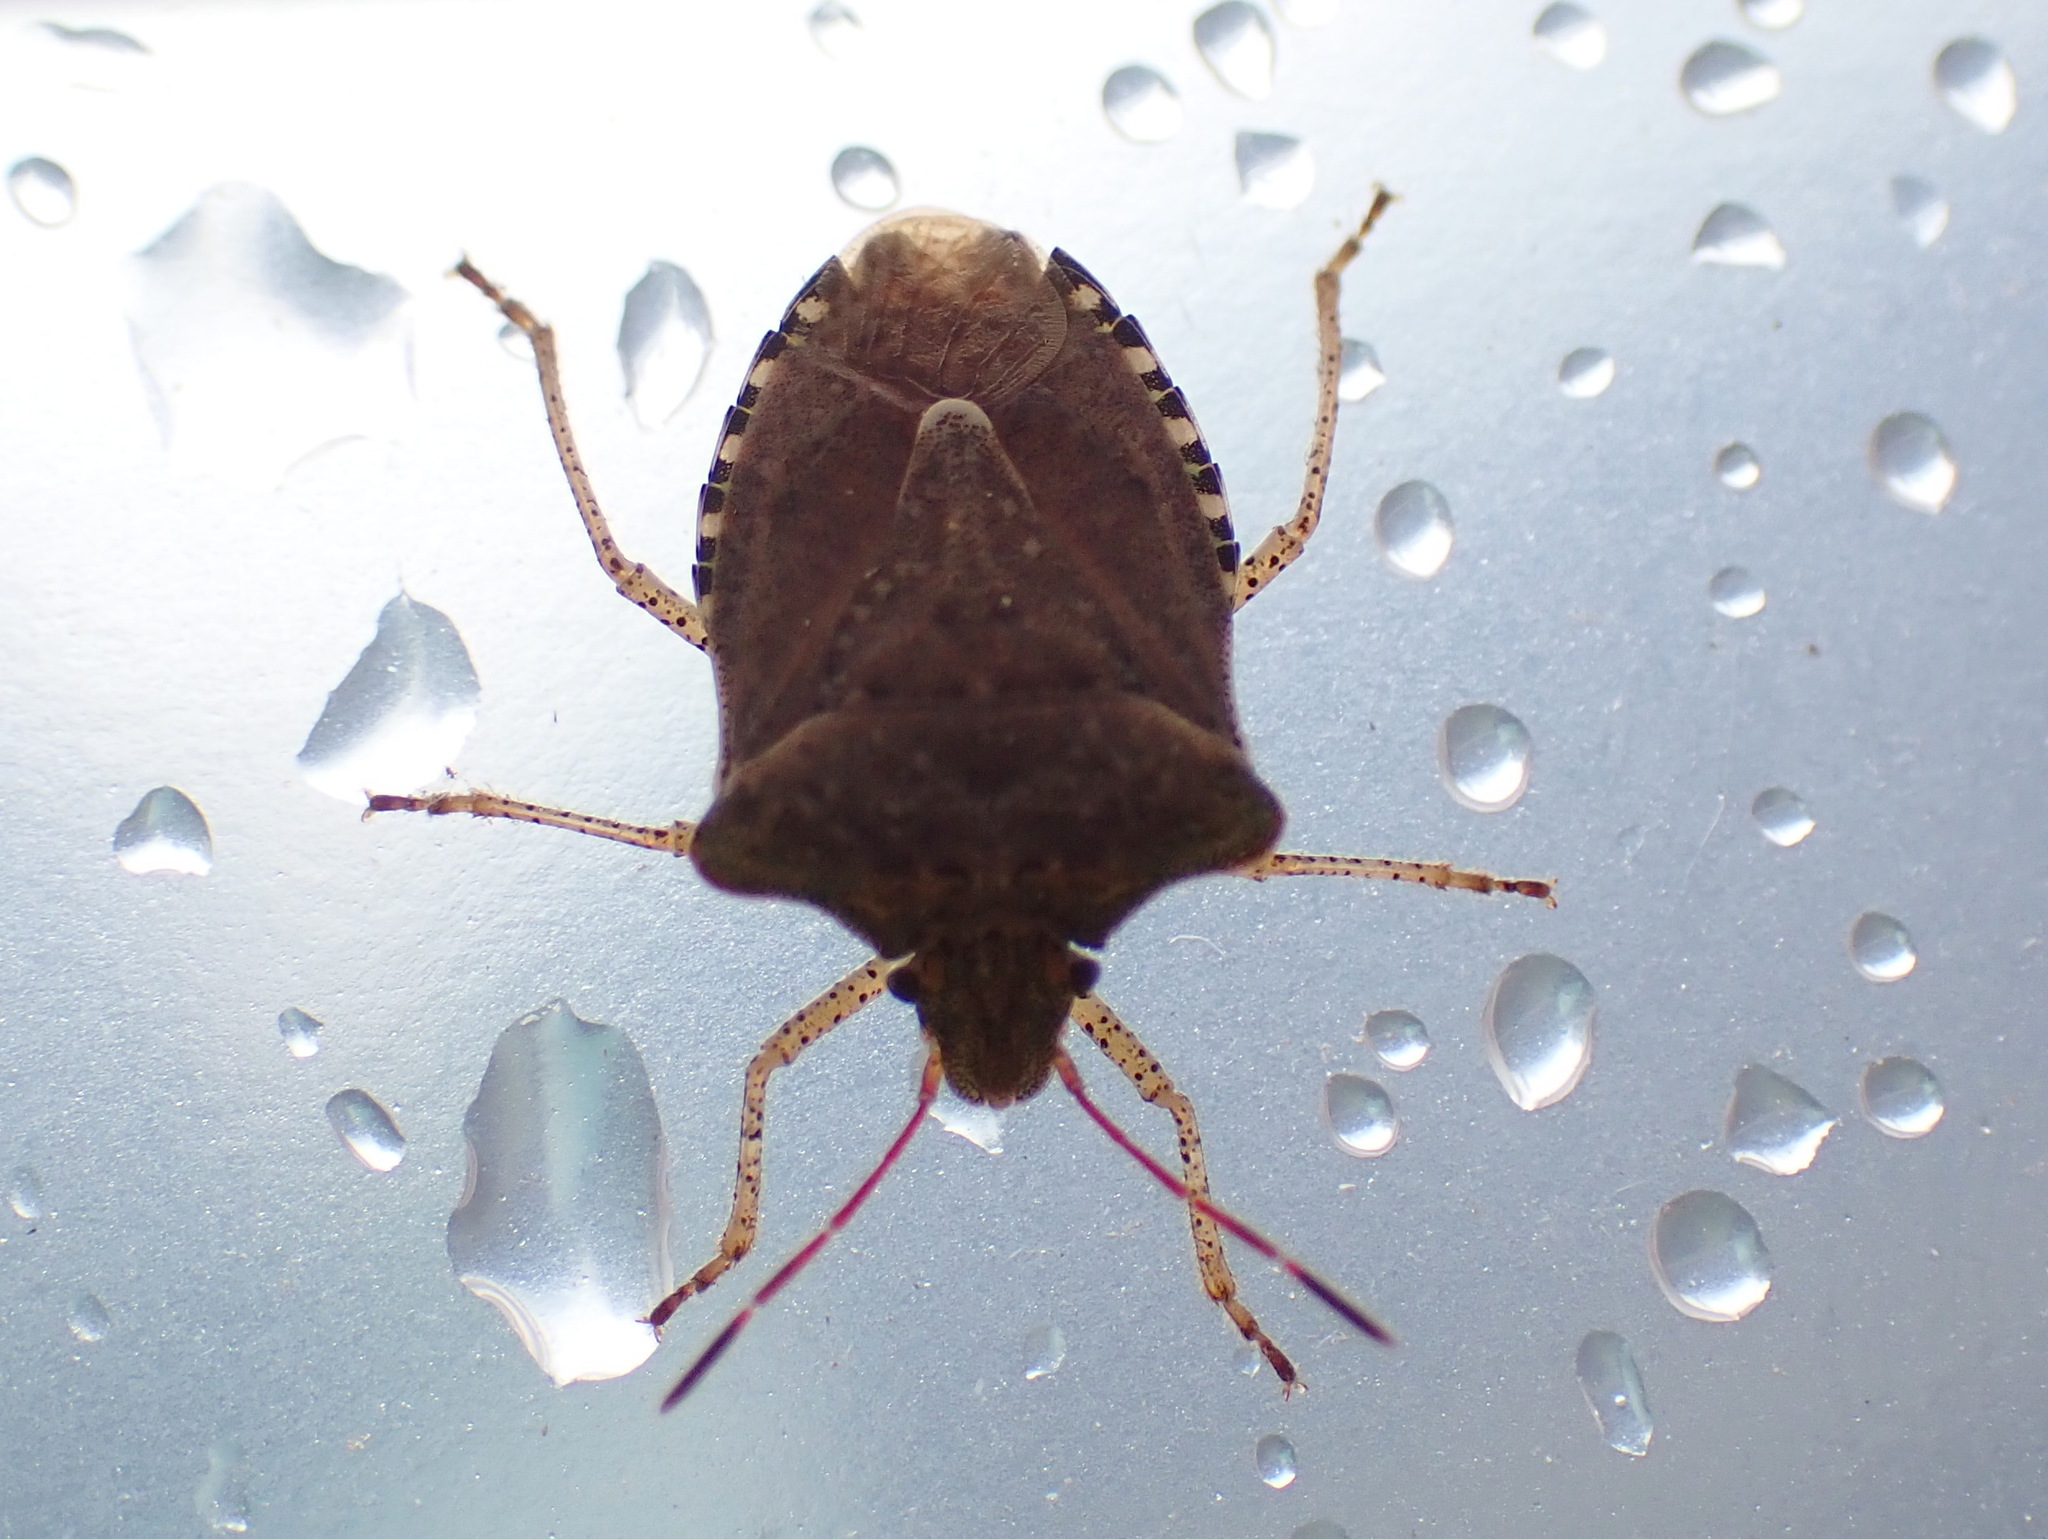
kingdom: Animalia
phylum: Arthropoda
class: Insecta
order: Hemiptera
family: Pentatomidae
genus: Euschistus
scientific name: Euschistus tristigmus
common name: Dusky stink bug
